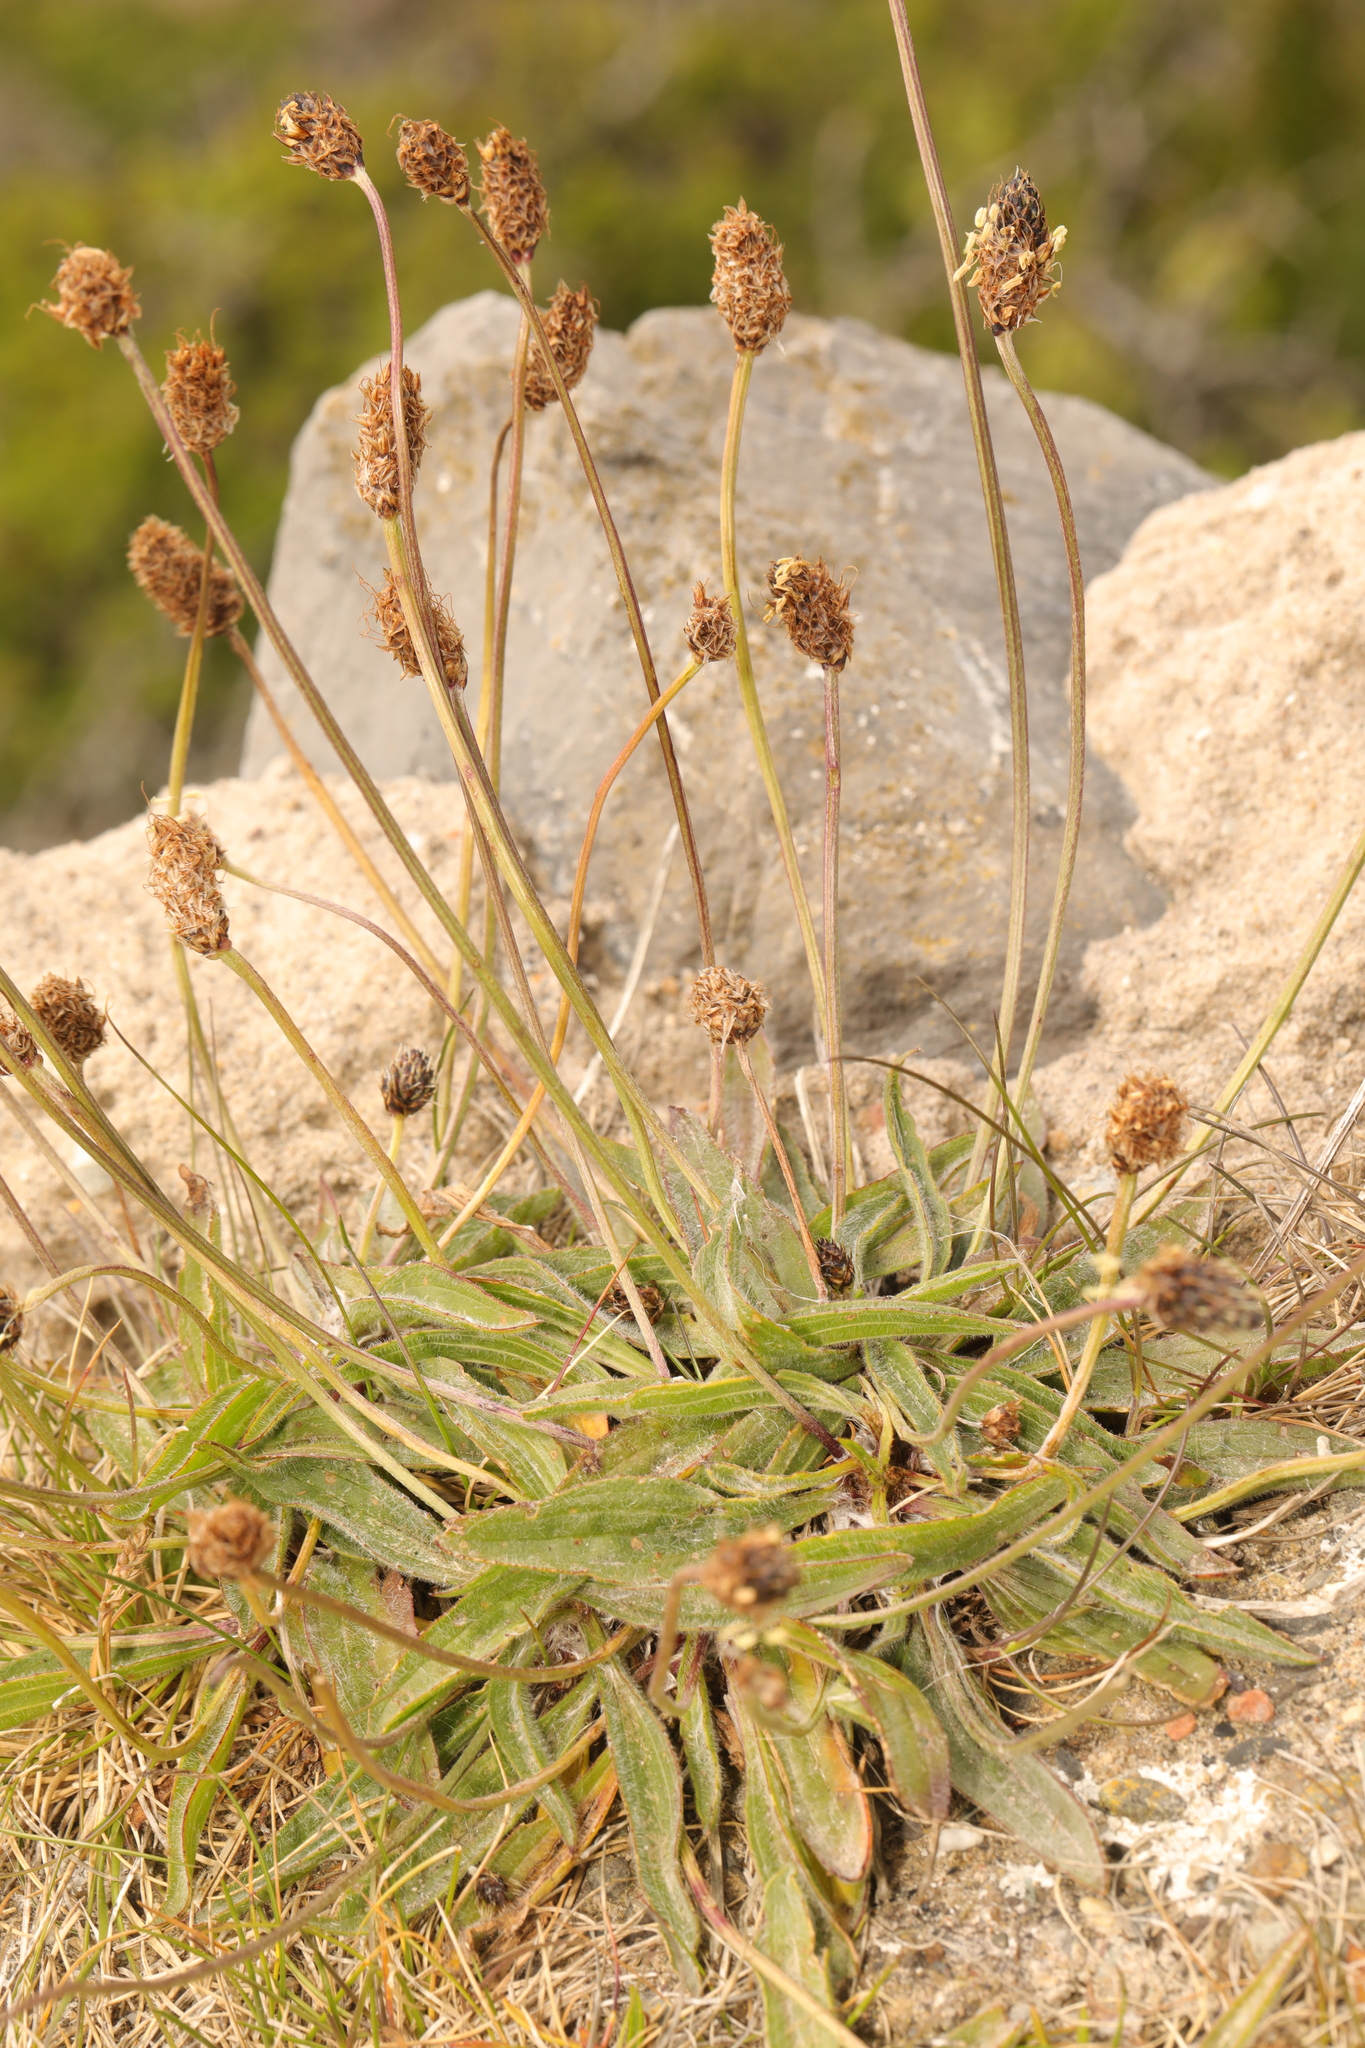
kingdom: Plantae
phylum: Tracheophyta
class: Magnoliopsida
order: Lamiales
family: Plantaginaceae
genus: Plantago
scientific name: Plantago lanceolata
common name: Ribwort plantain
